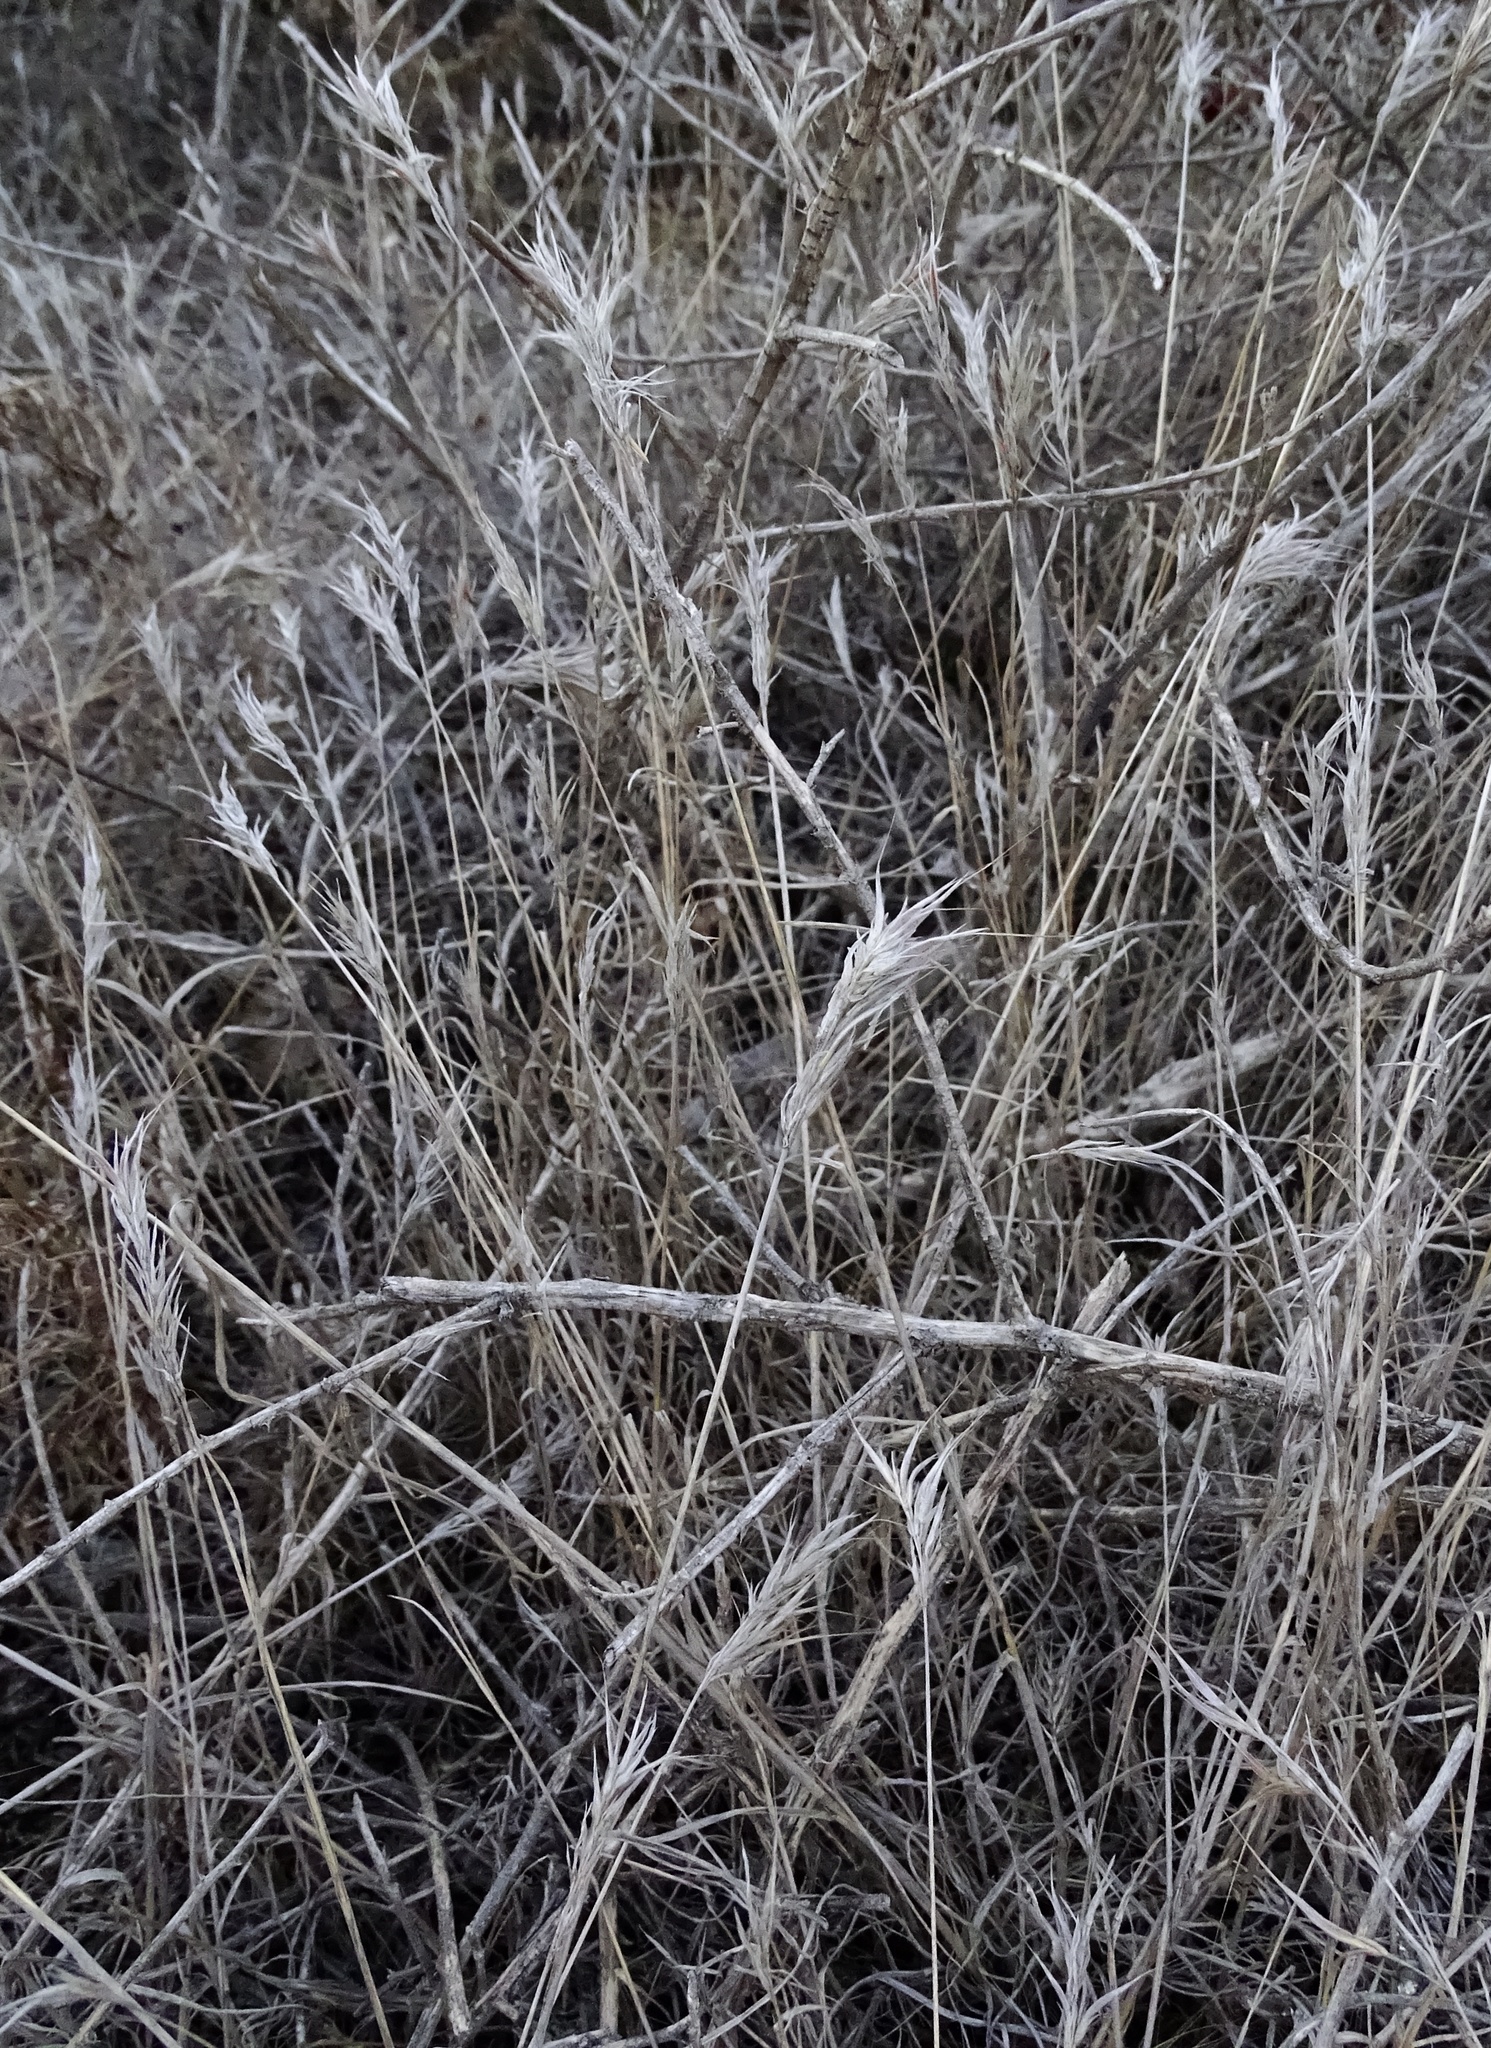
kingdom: Plantae
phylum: Tracheophyta
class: Liliopsida
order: Poales
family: Poaceae
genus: Bromus
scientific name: Bromus madritensis
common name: Compact brome
